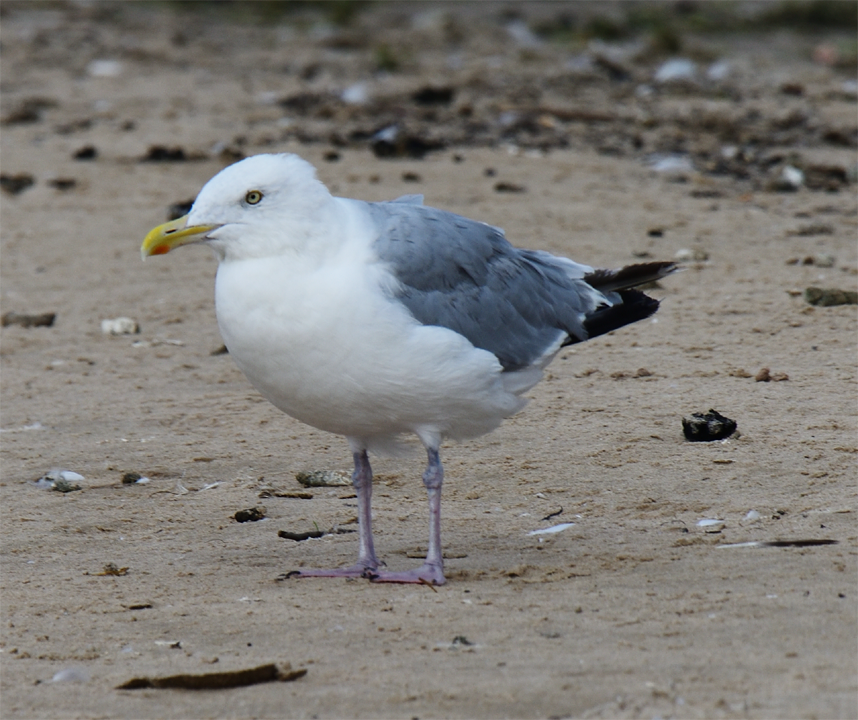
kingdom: Animalia
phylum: Chordata
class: Aves
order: Charadriiformes
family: Laridae
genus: Larus
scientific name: Larus argentatus
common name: Herring gull
